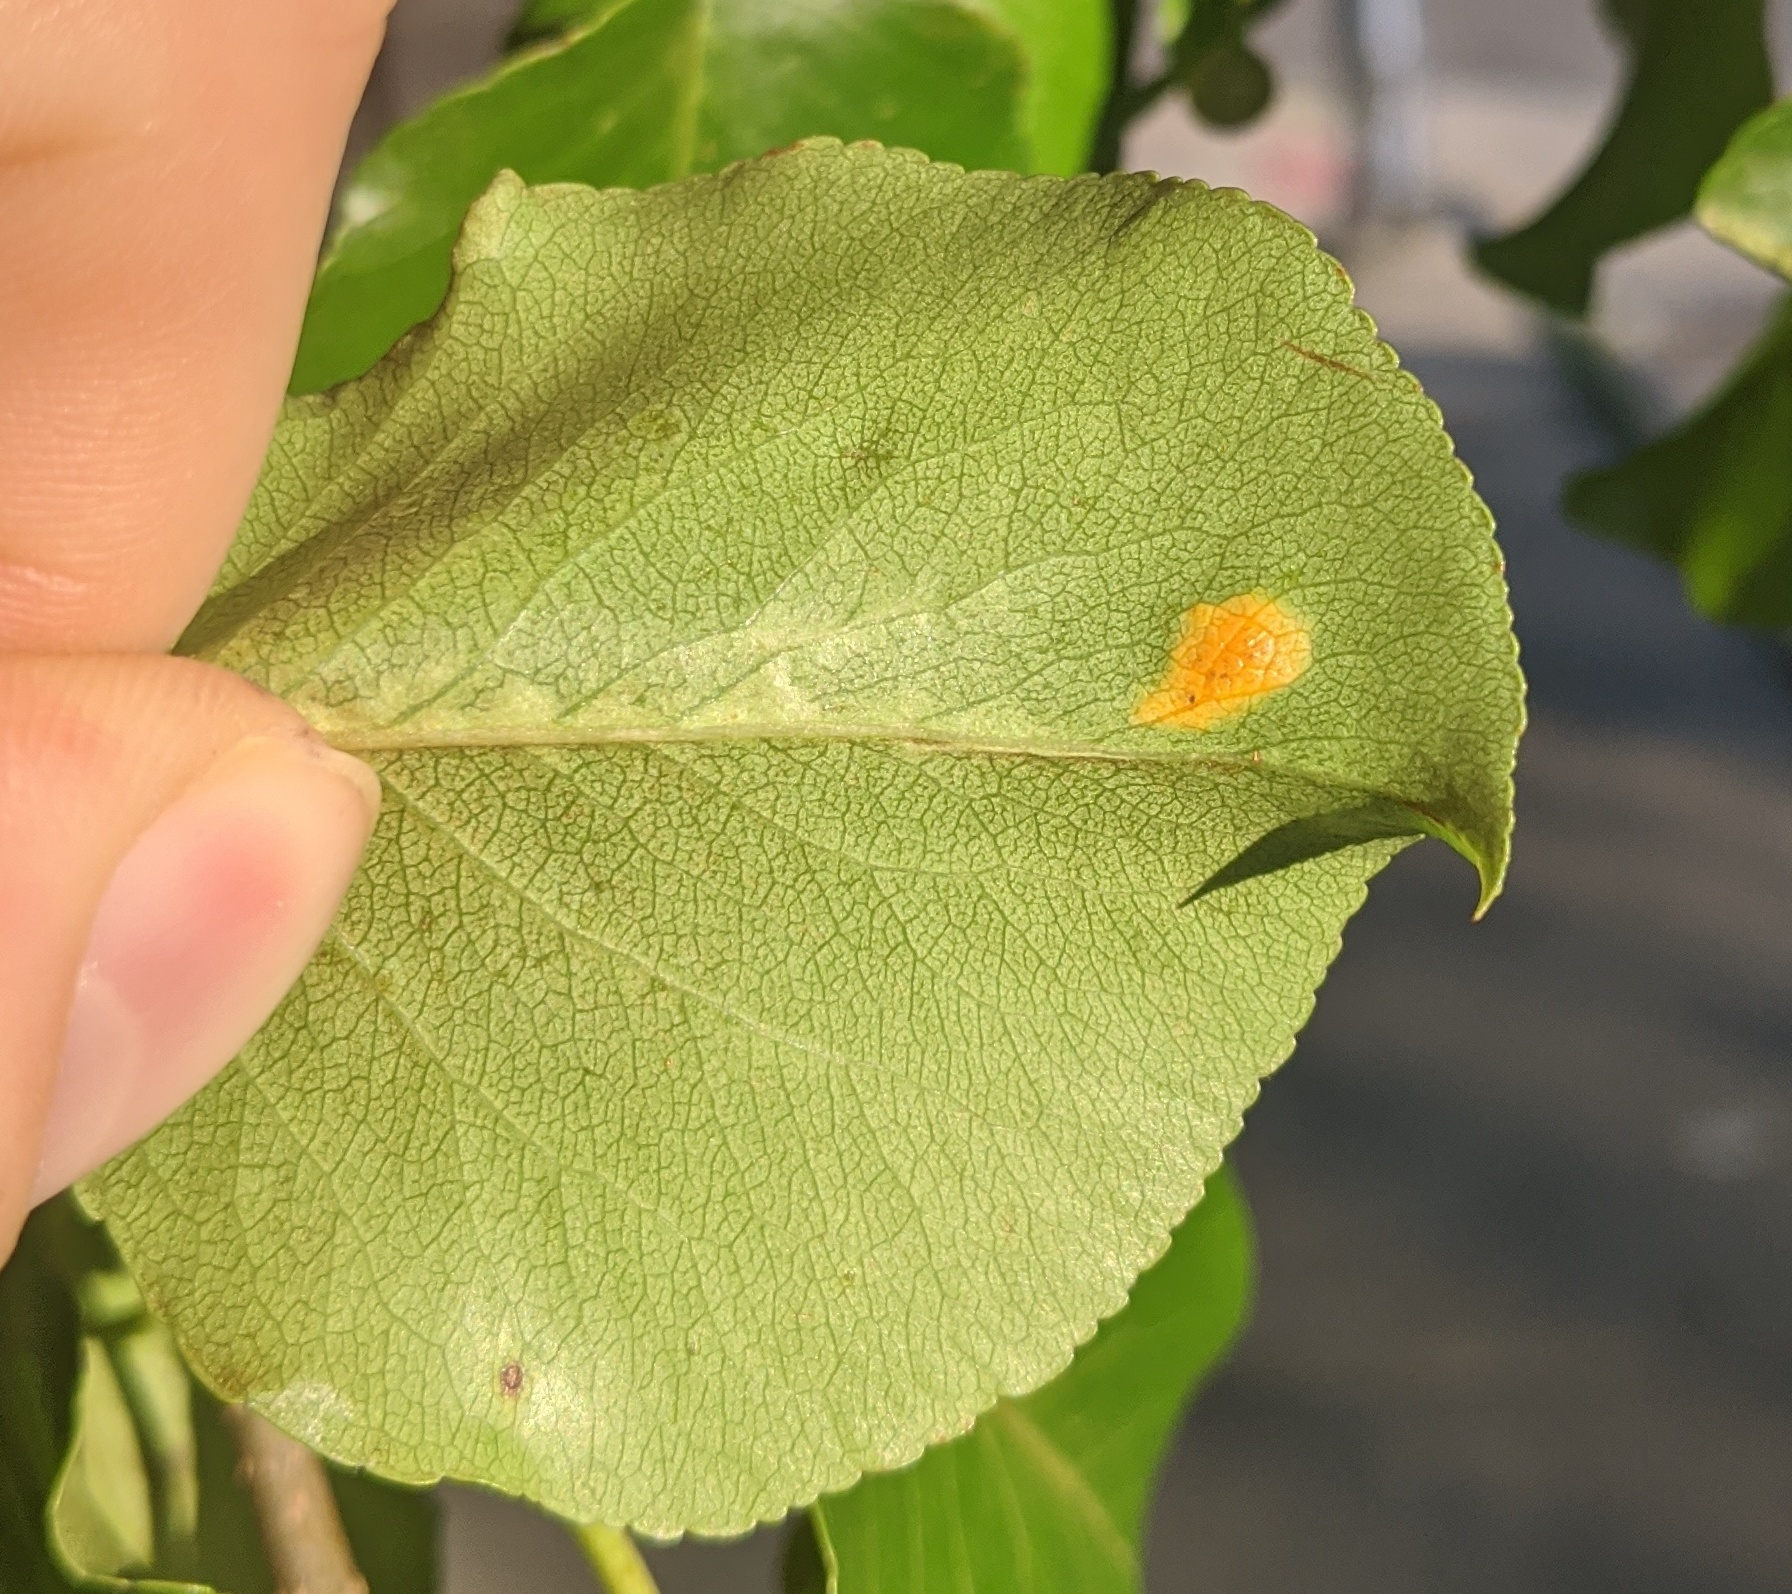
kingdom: Fungi
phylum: Basidiomycota
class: Pucciniomycetes
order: Pucciniales
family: Gymnosporangiaceae
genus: Gymnosporangium
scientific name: Gymnosporangium sabinae
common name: Pear trellis rust fungus
